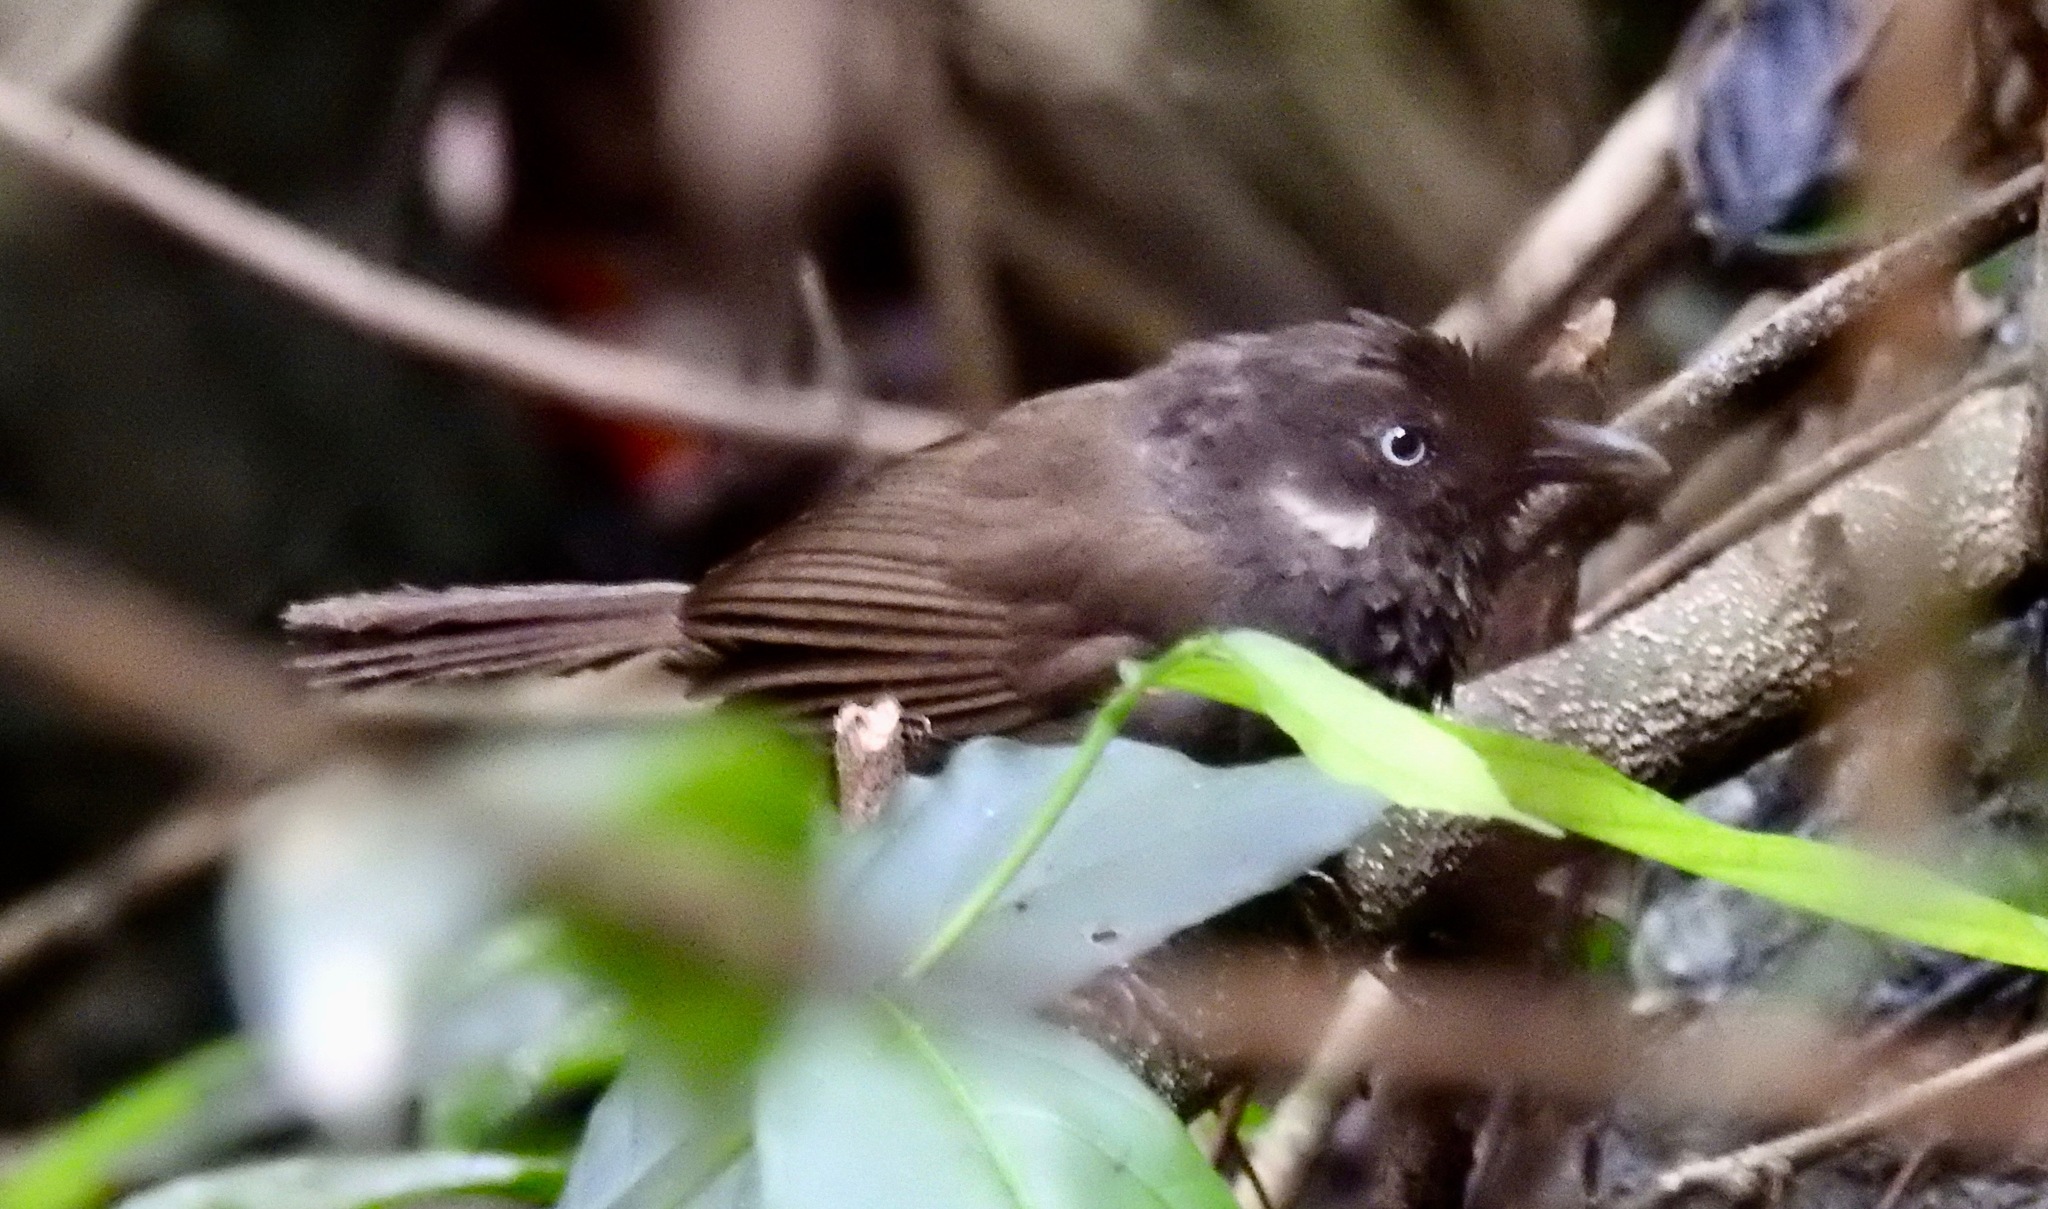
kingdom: Animalia
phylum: Chordata
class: Aves
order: Passeriformes
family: Timaliidae
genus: Stachyris
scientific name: Stachyris nonggangensis
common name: Nonggang babbler
